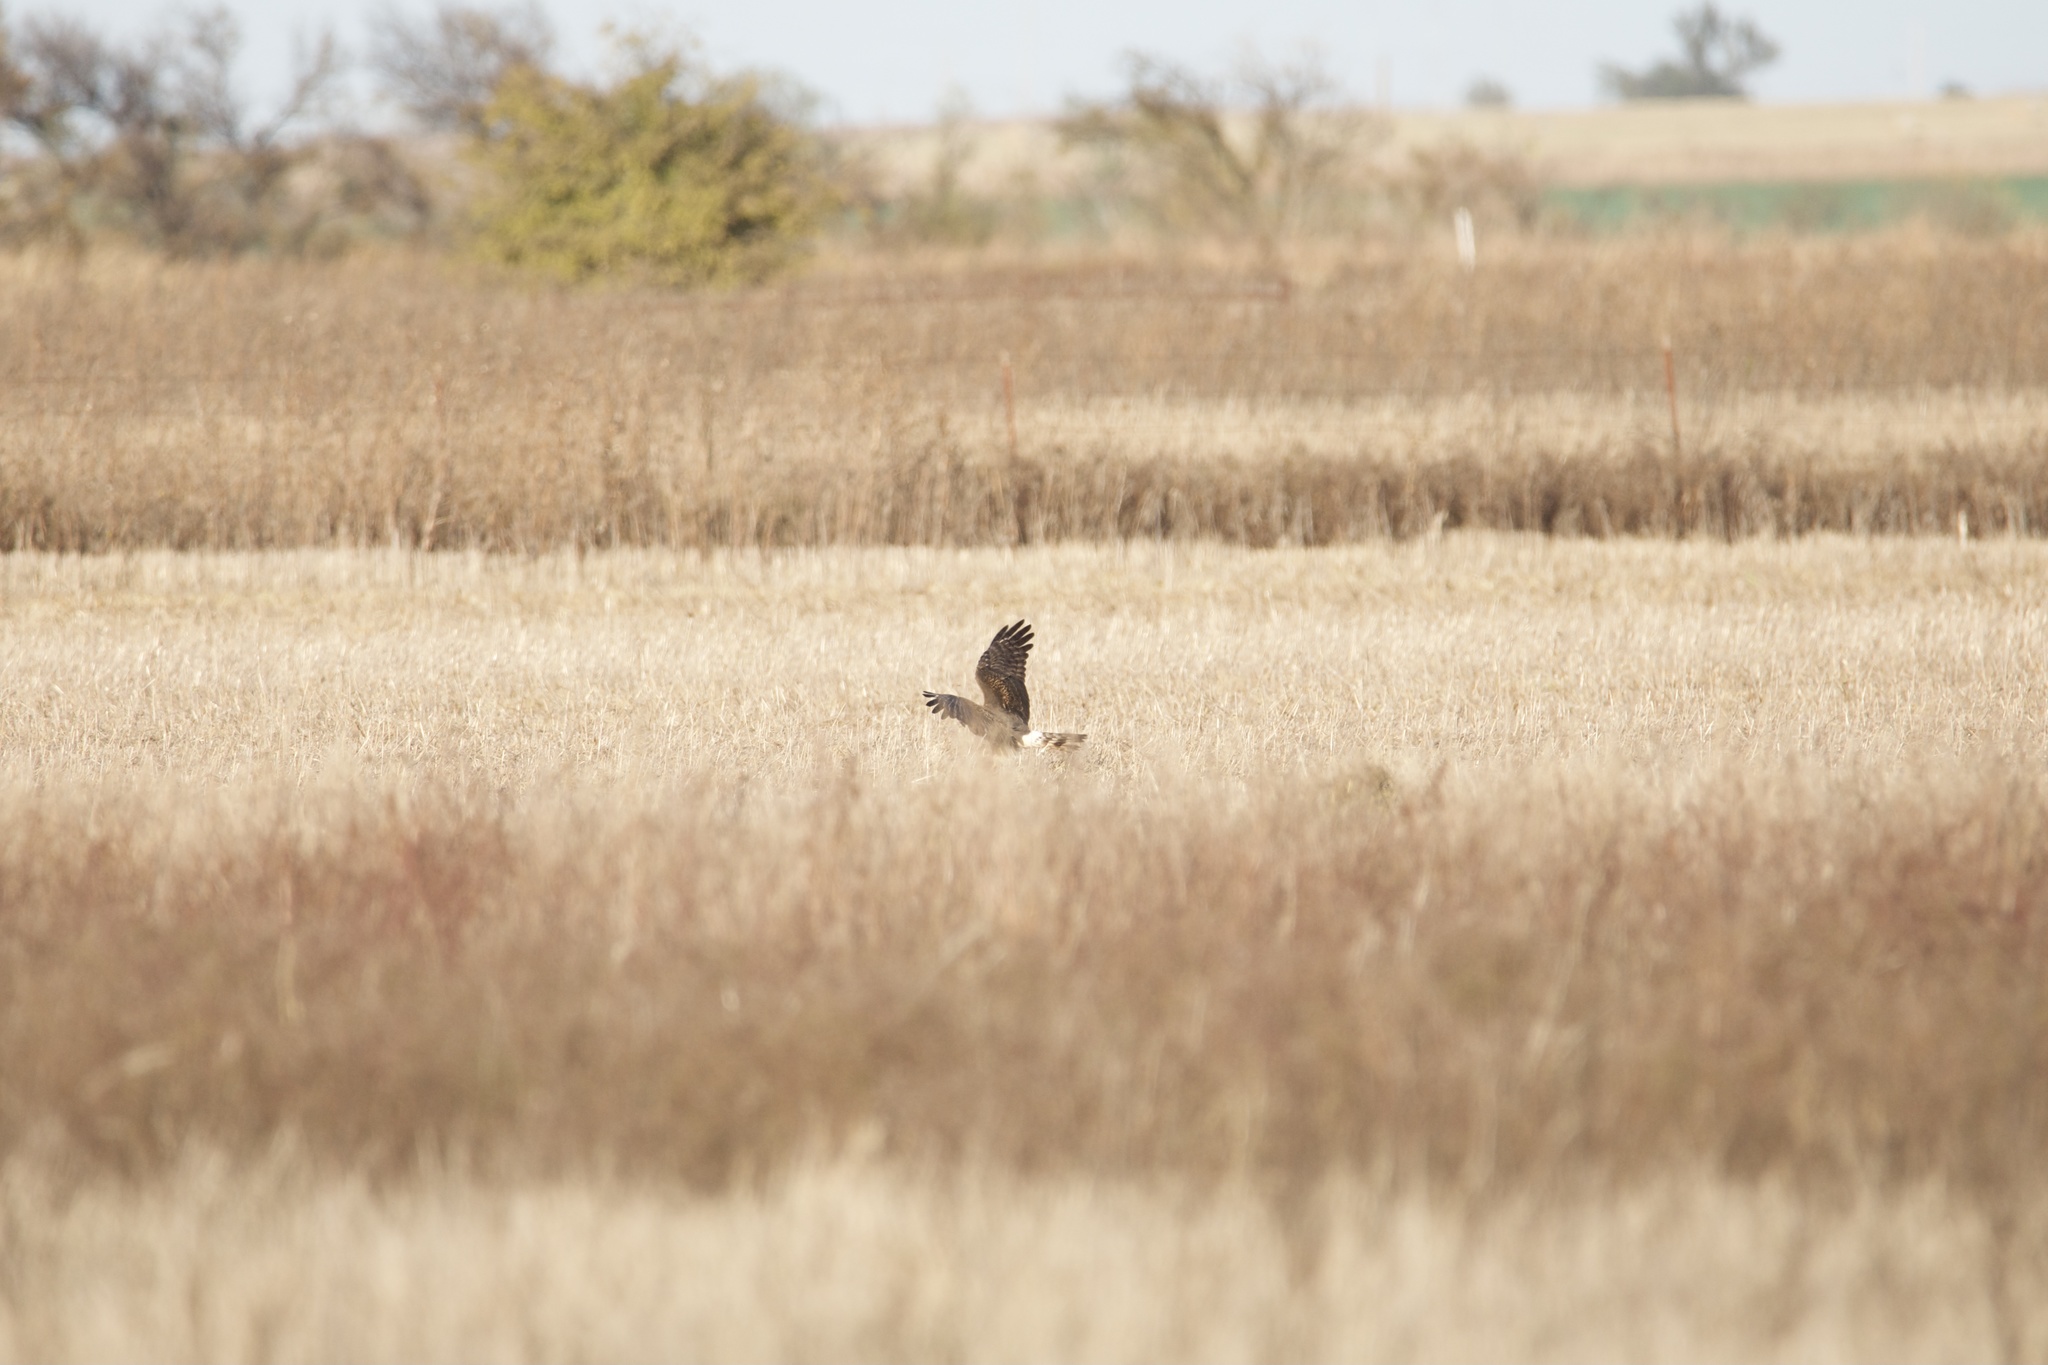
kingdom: Animalia
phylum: Chordata
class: Aves
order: Accipitriformes
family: Accipitridae
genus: Circus
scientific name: Circus cyaneus
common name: Hen harrier
